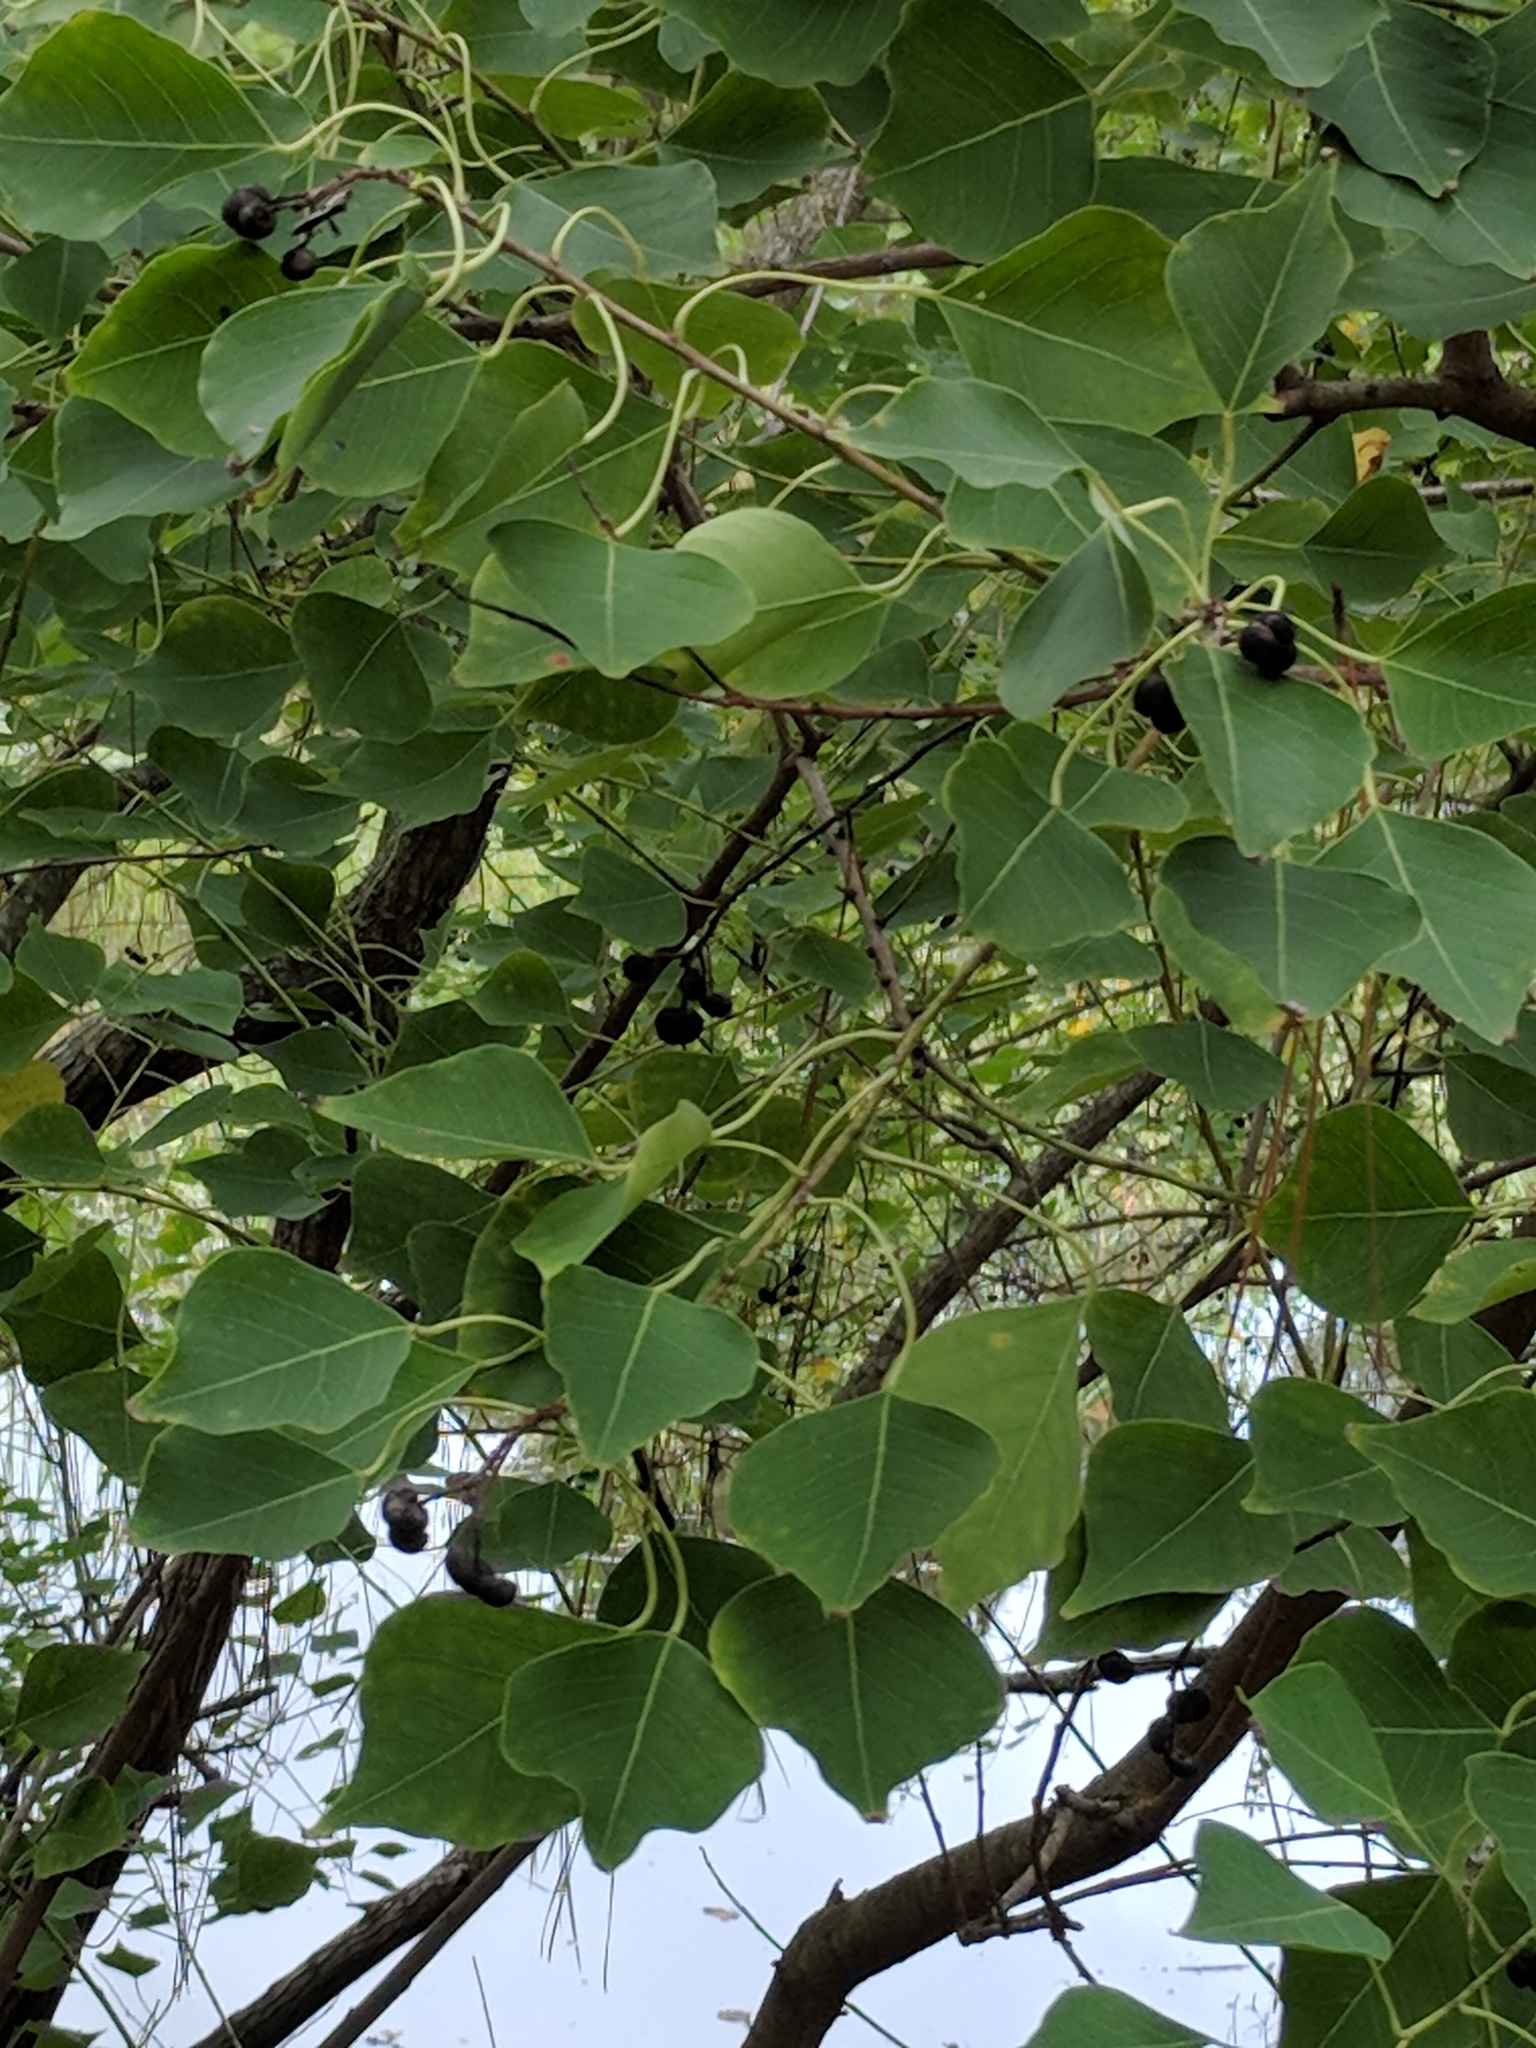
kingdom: Plantae
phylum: Tracheophyta
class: Magnoliopsida
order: Malpighiales
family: Euphorbiaceae
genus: Triadica
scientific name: Triadica sebifera
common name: Chinese tallow
